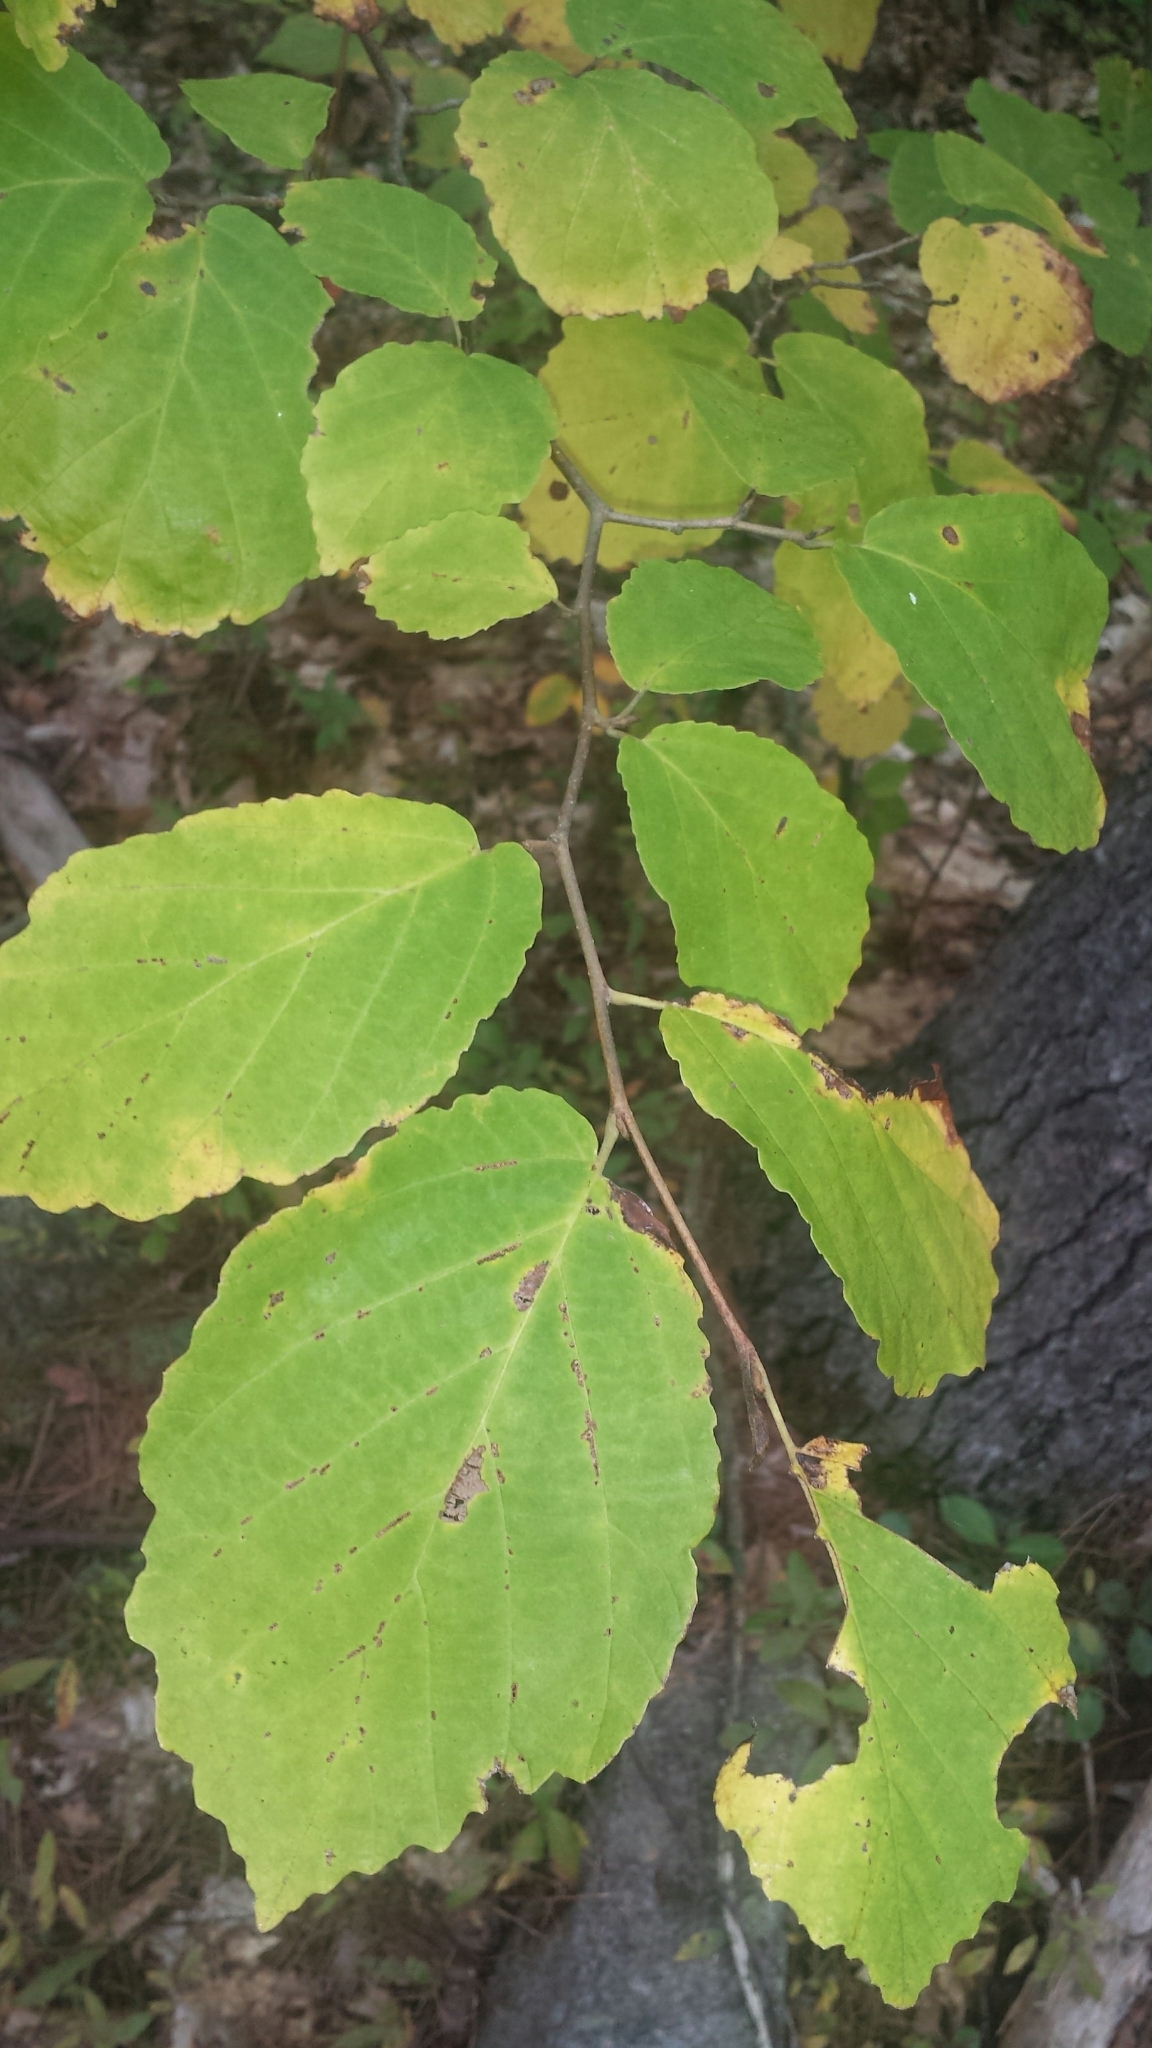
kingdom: Plantae
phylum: Tracheophyta
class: Magnoliopsida
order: Saxifragales
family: Hamamelidaceae
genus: Hamamelis
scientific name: Hamamelis virginiana
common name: Witch-hazel
